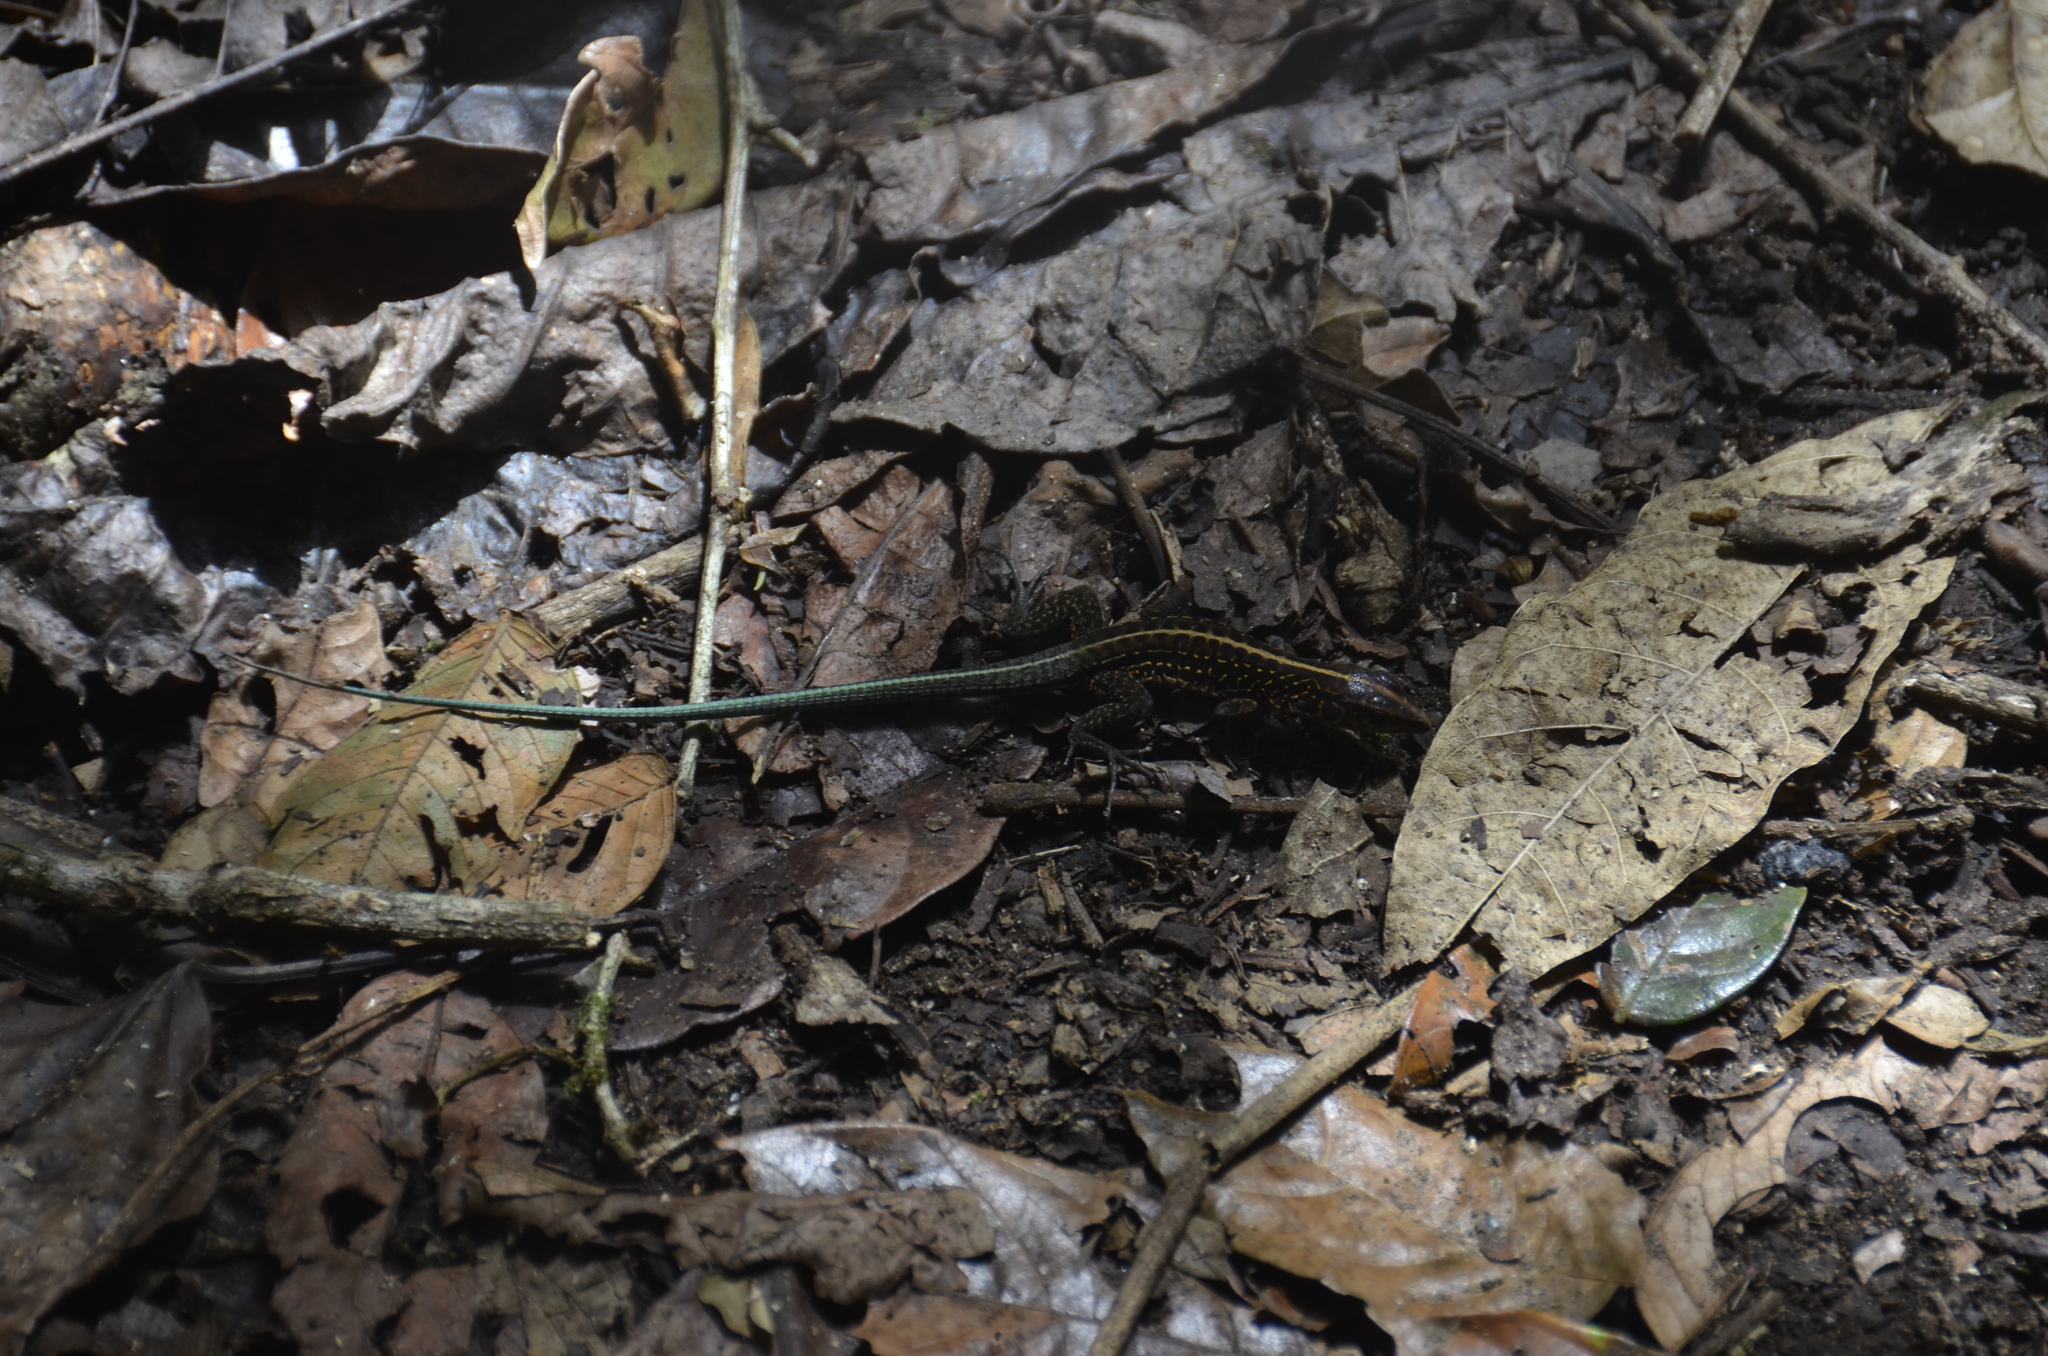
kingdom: Animalia
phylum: Chordata
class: Squamata
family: Teiidae
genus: Holcosus
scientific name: Holcosus festivus
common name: Middle american ameiva
